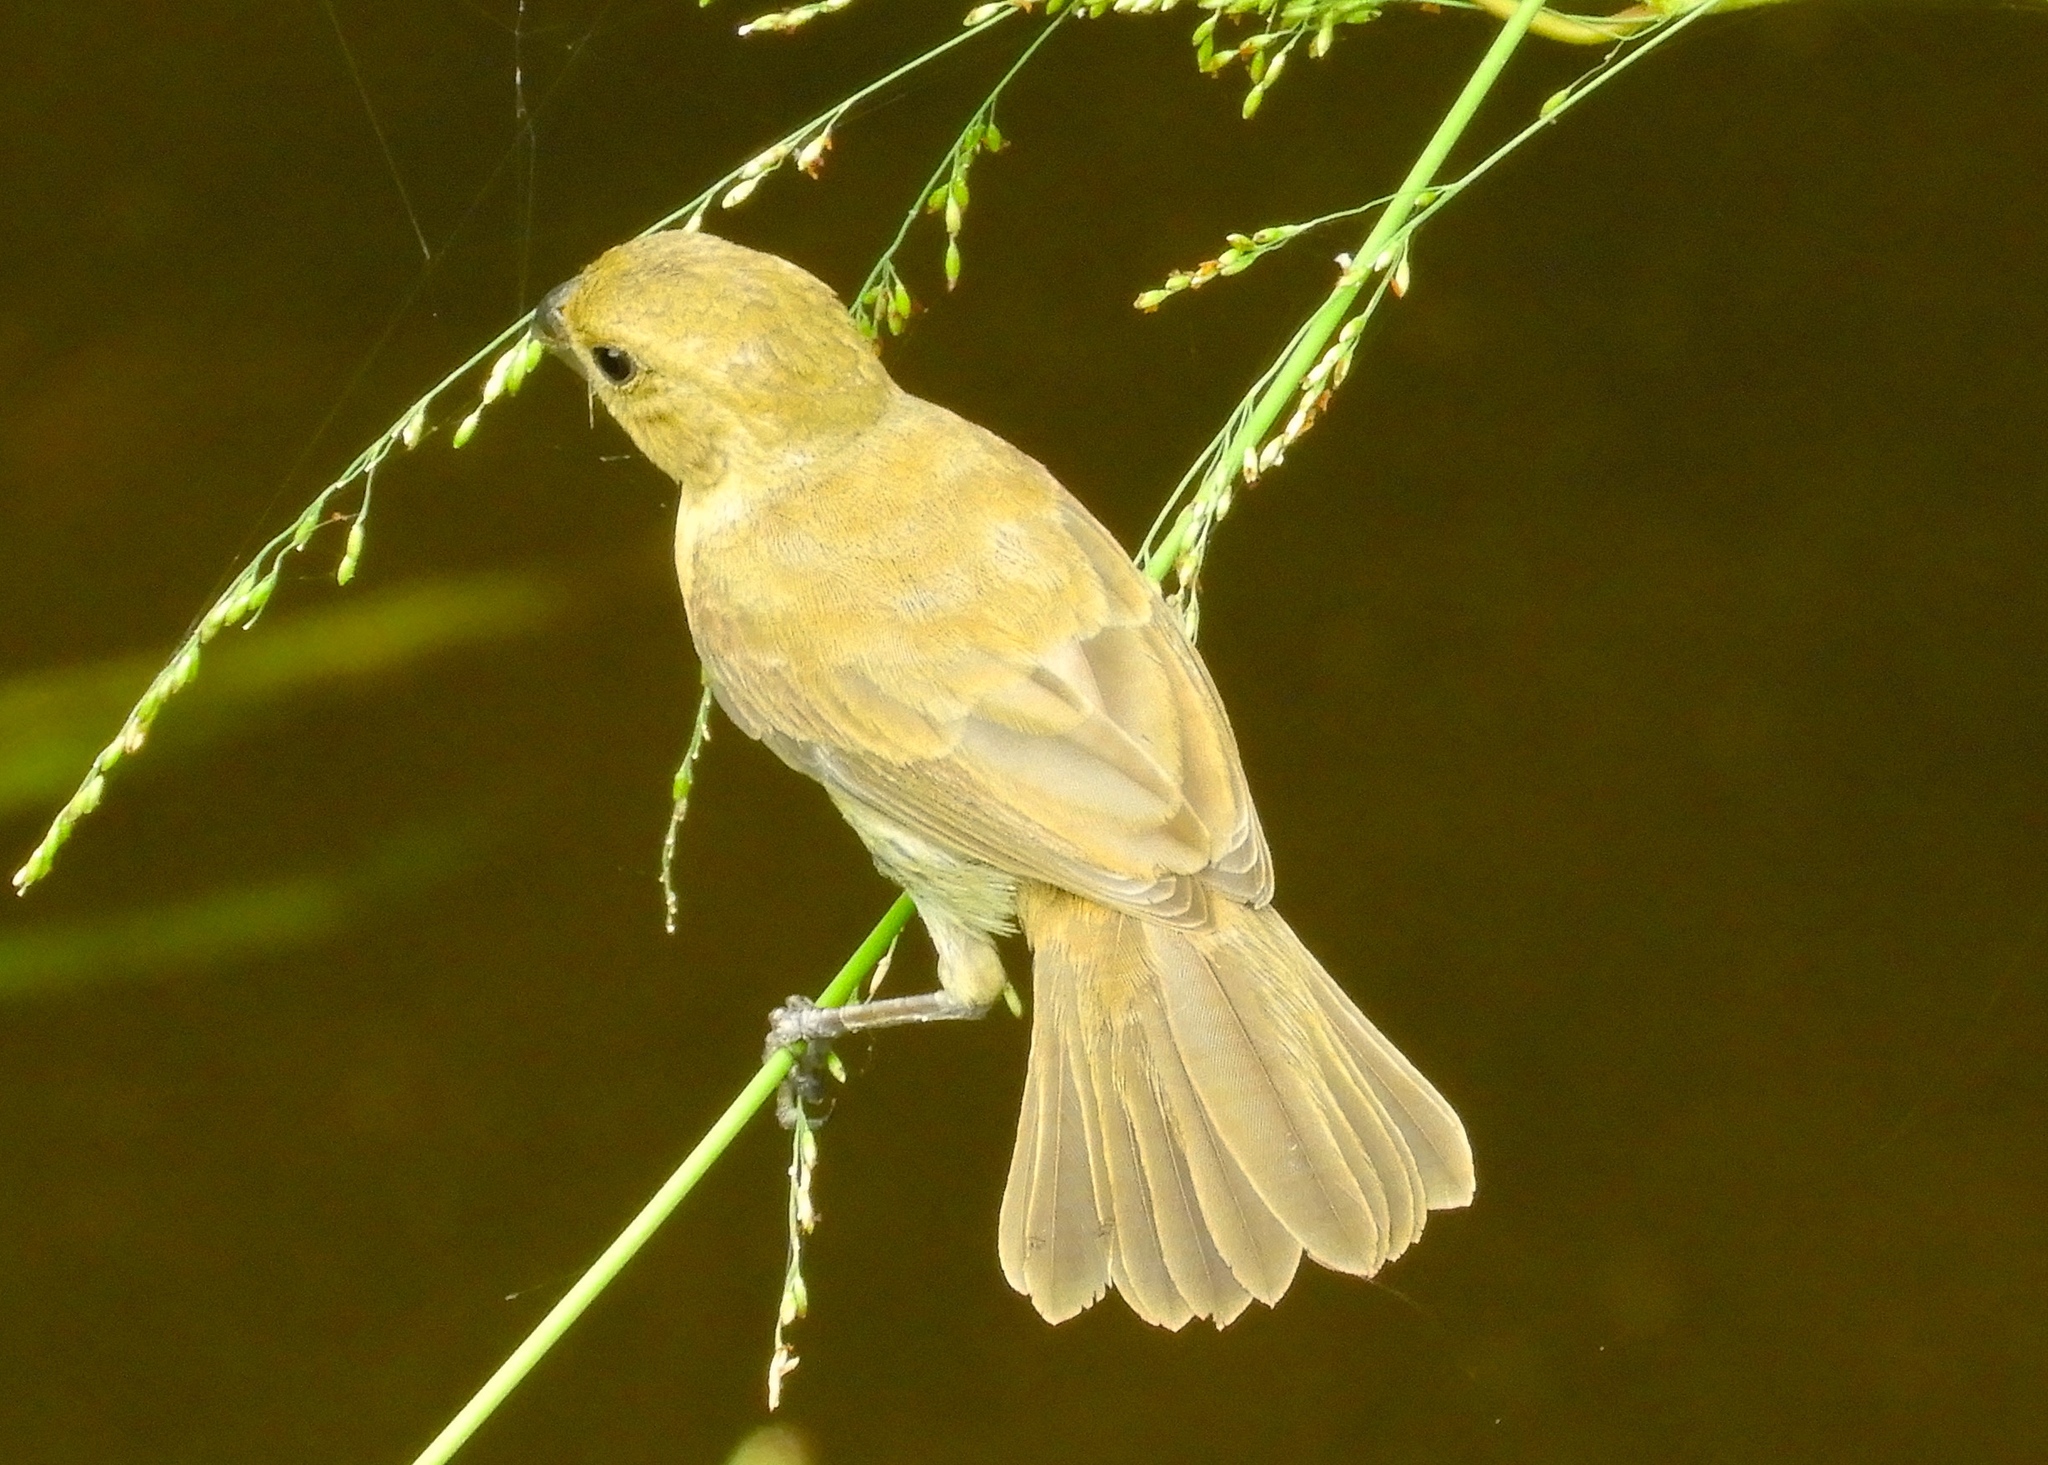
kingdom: Animalia
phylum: Chordata
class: Aves
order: Passeriformes
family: Thraupidae
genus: Sporophila
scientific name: Sporophila torqueola
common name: White-collared seedeater
